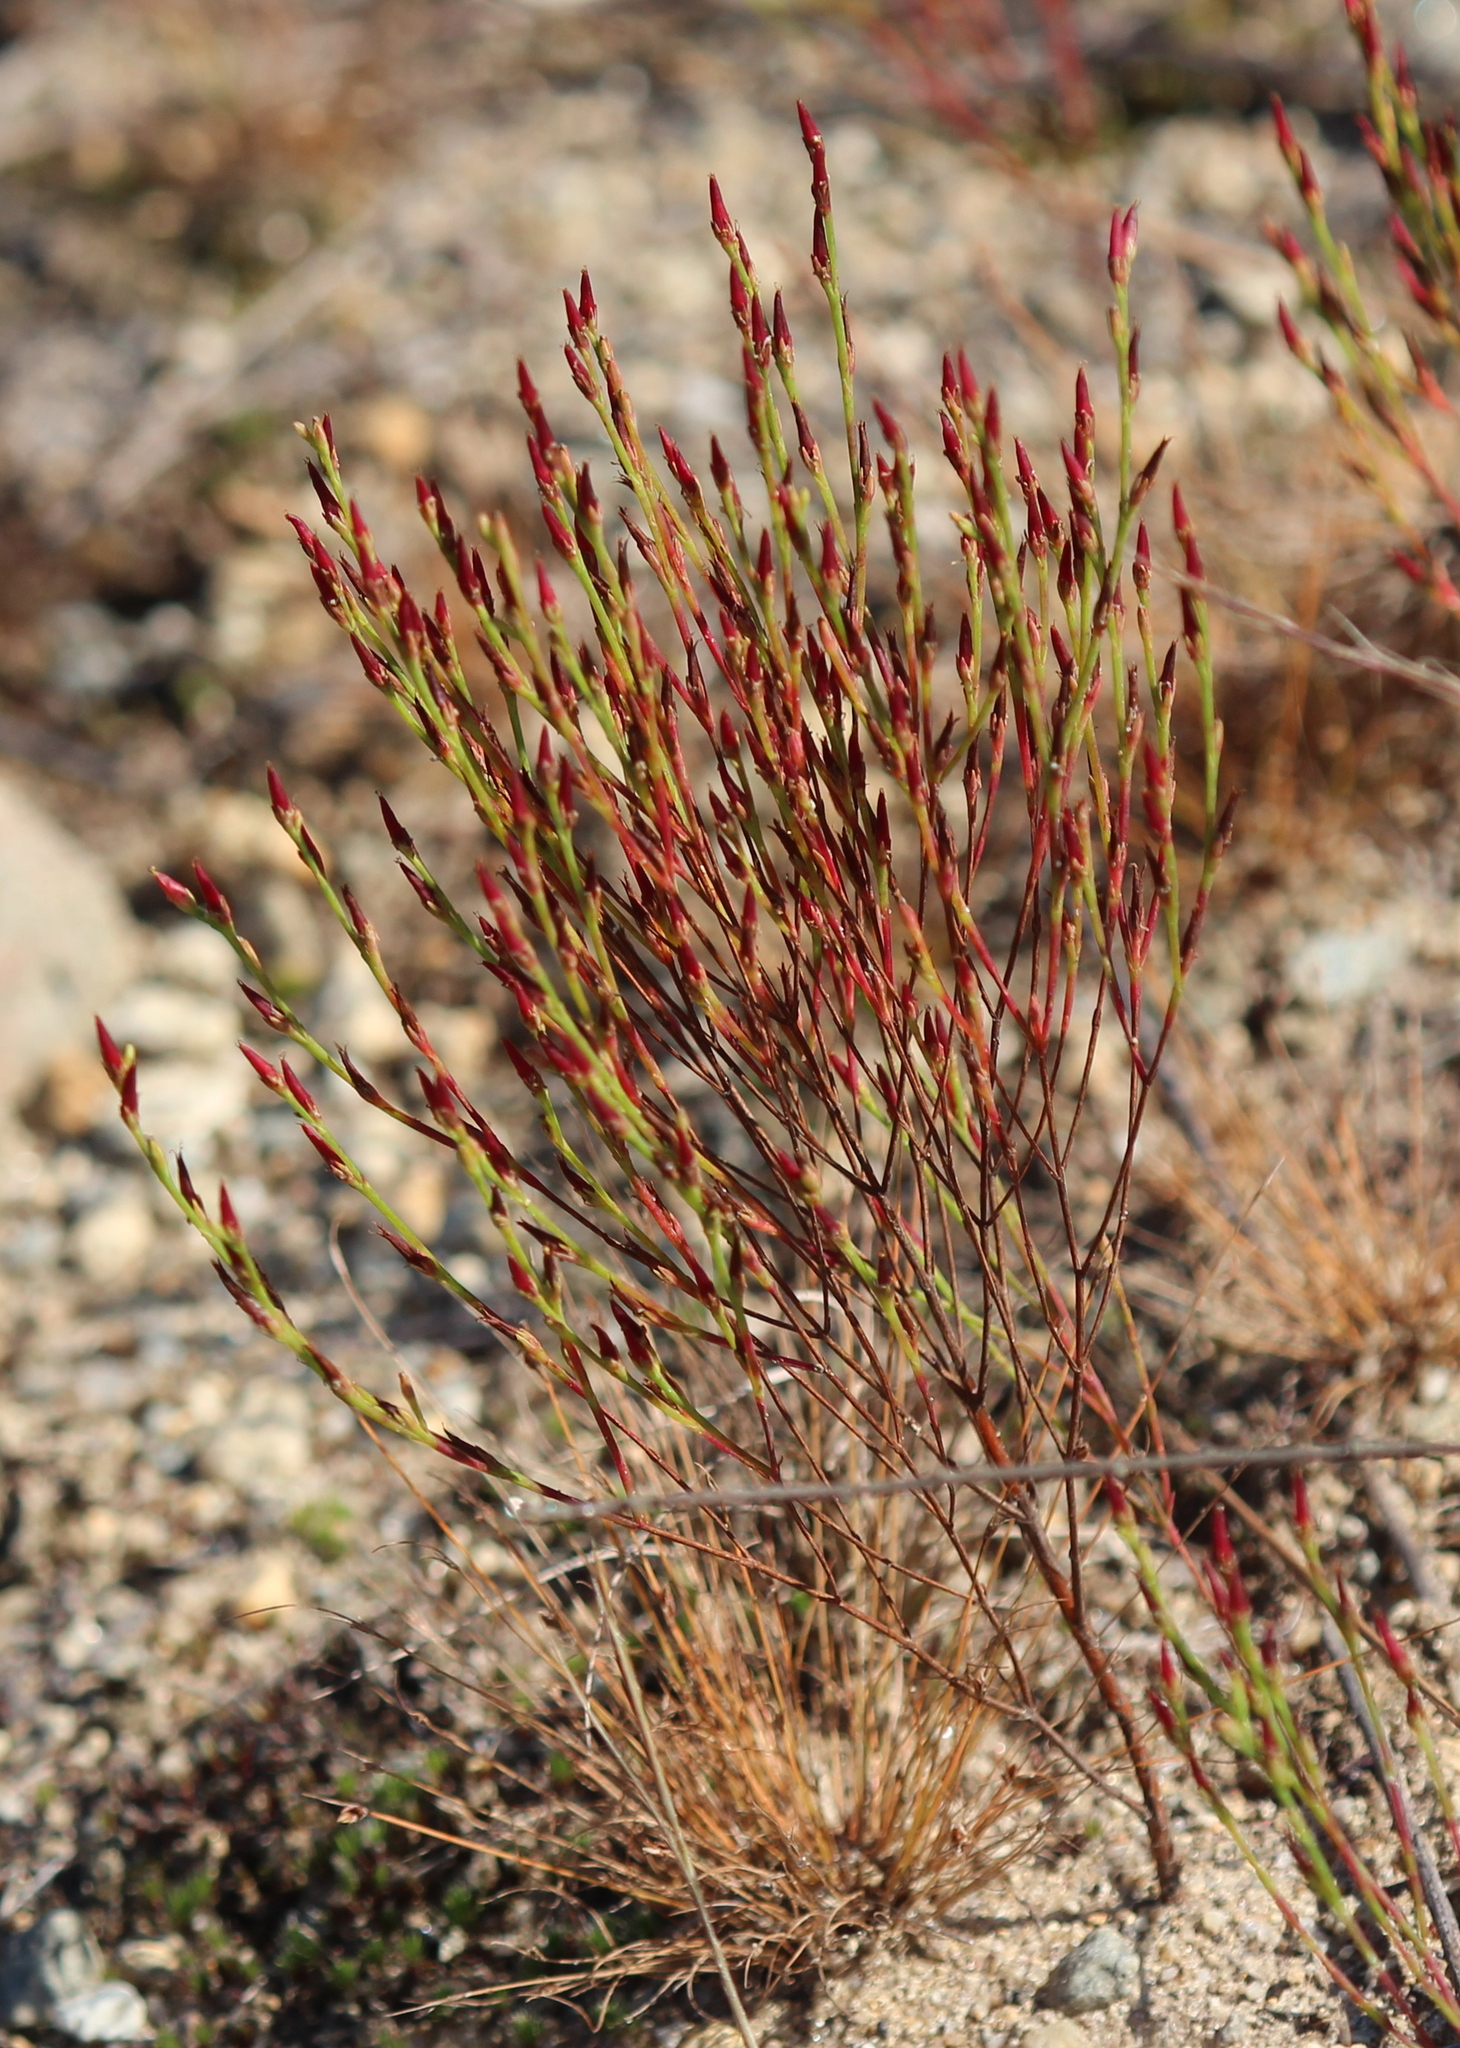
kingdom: Plantae
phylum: Tracheophyta
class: Magnoliopsida
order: Malpighiales
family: Hypericaceae
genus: Hypericum
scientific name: Hypericum gentianoides
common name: Gentian-leaved st. john's-wort
